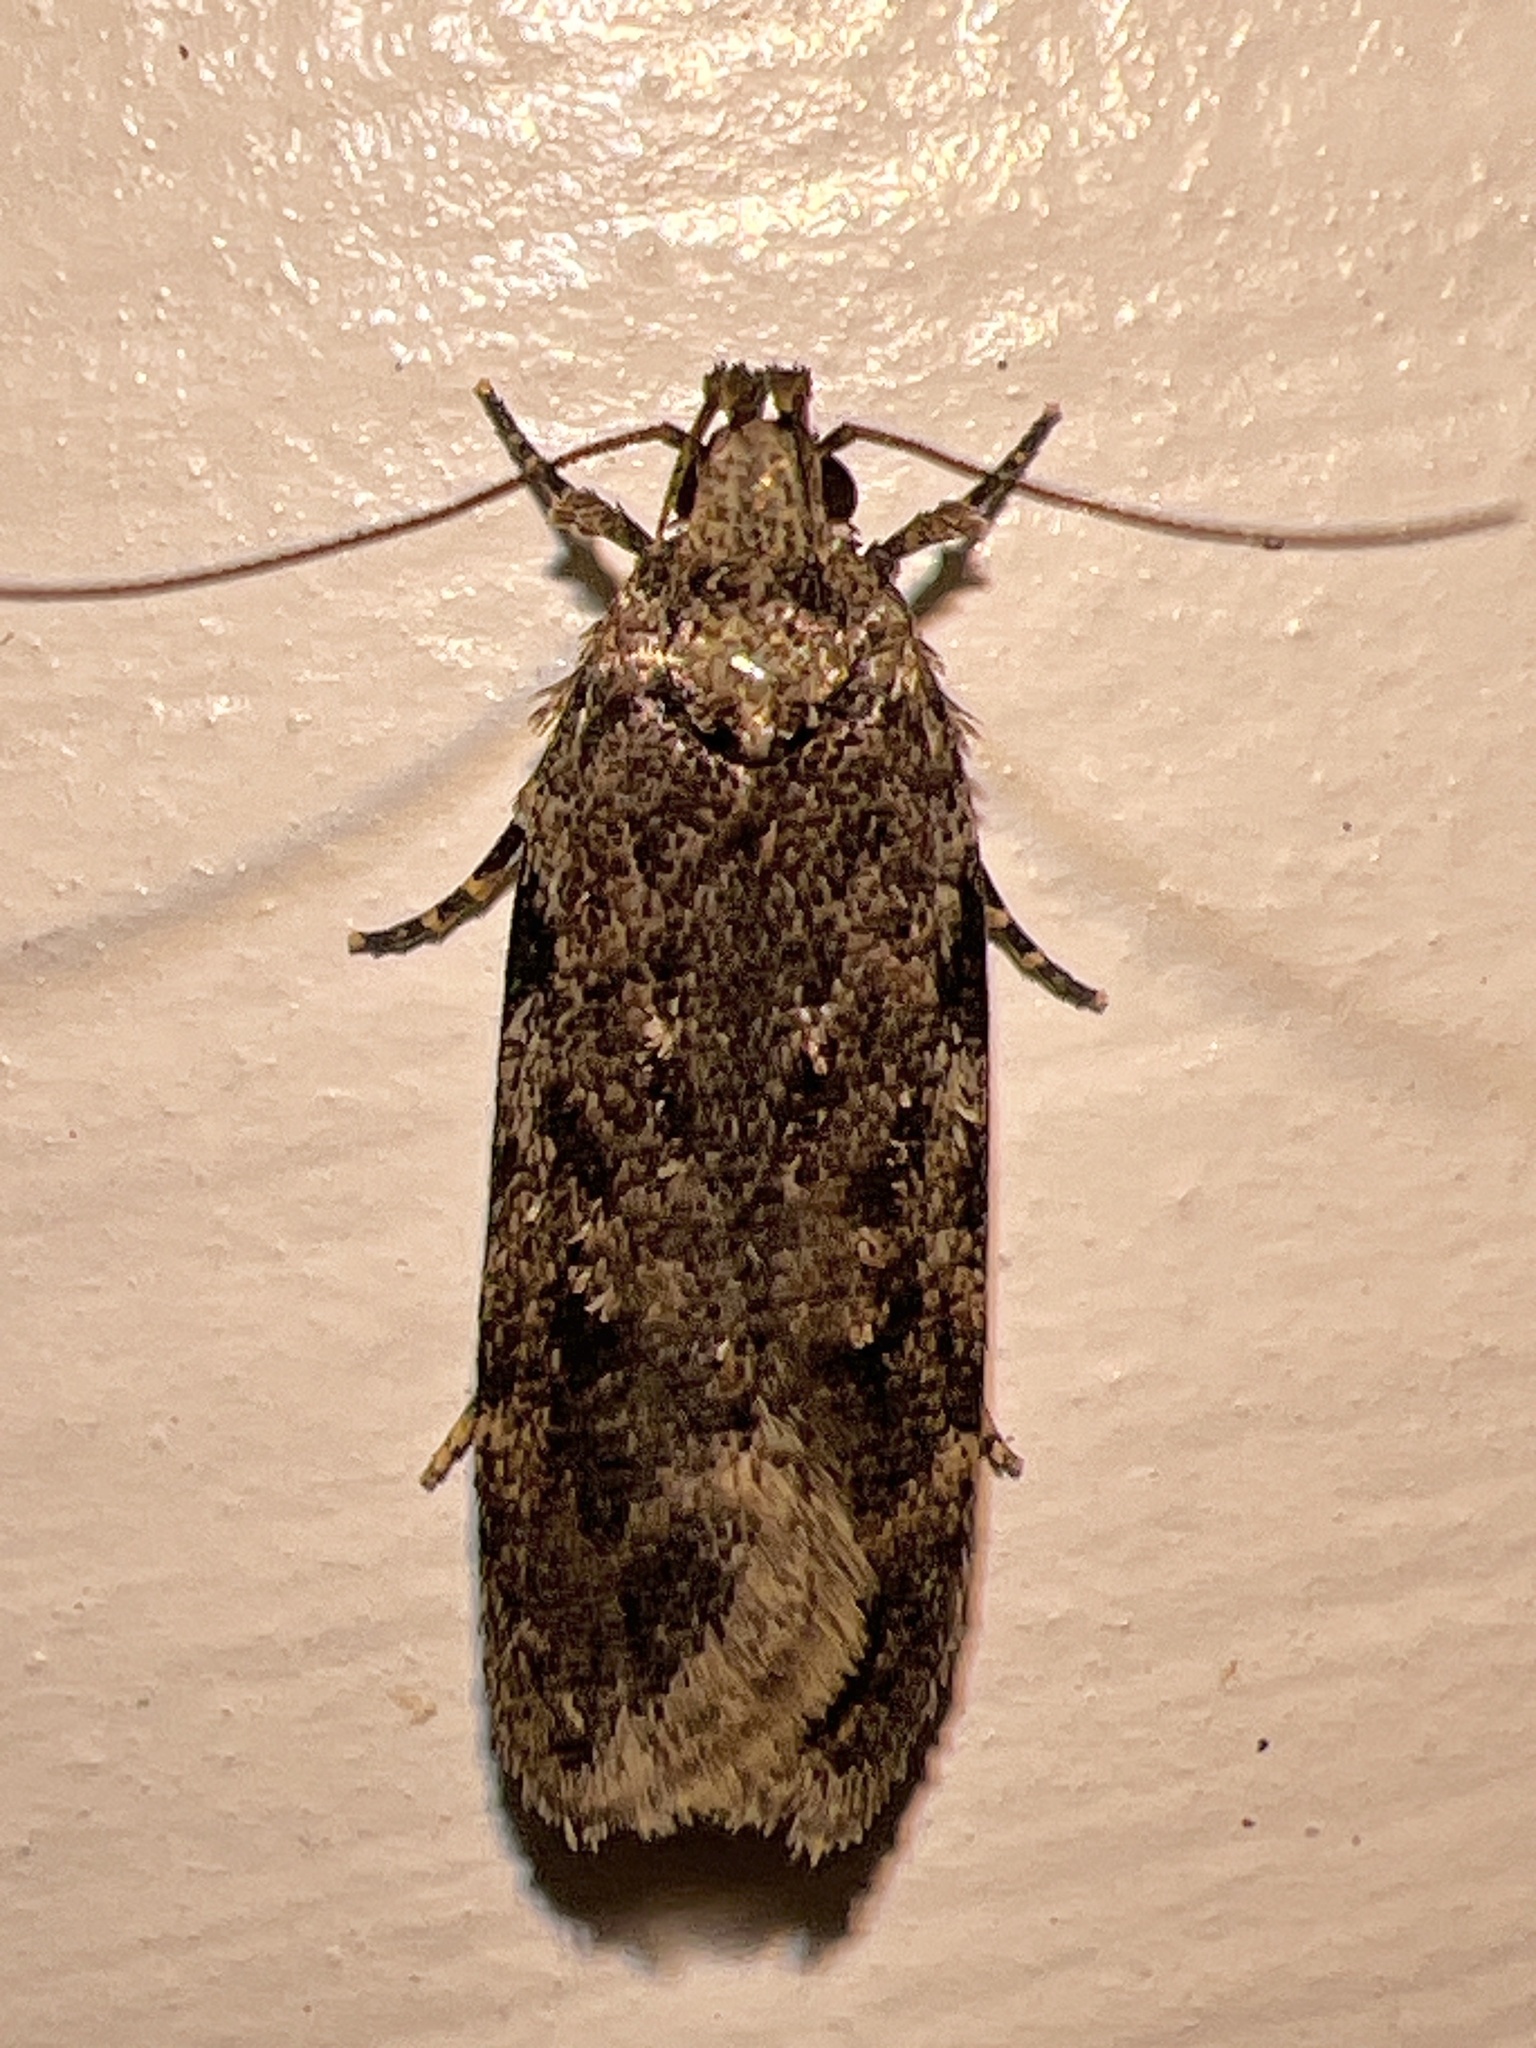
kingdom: Animalia
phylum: Arthropoda
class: Insecta
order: Lepidoptera
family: Gelechiidae
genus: Chionodes
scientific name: Chionodes pereyra
